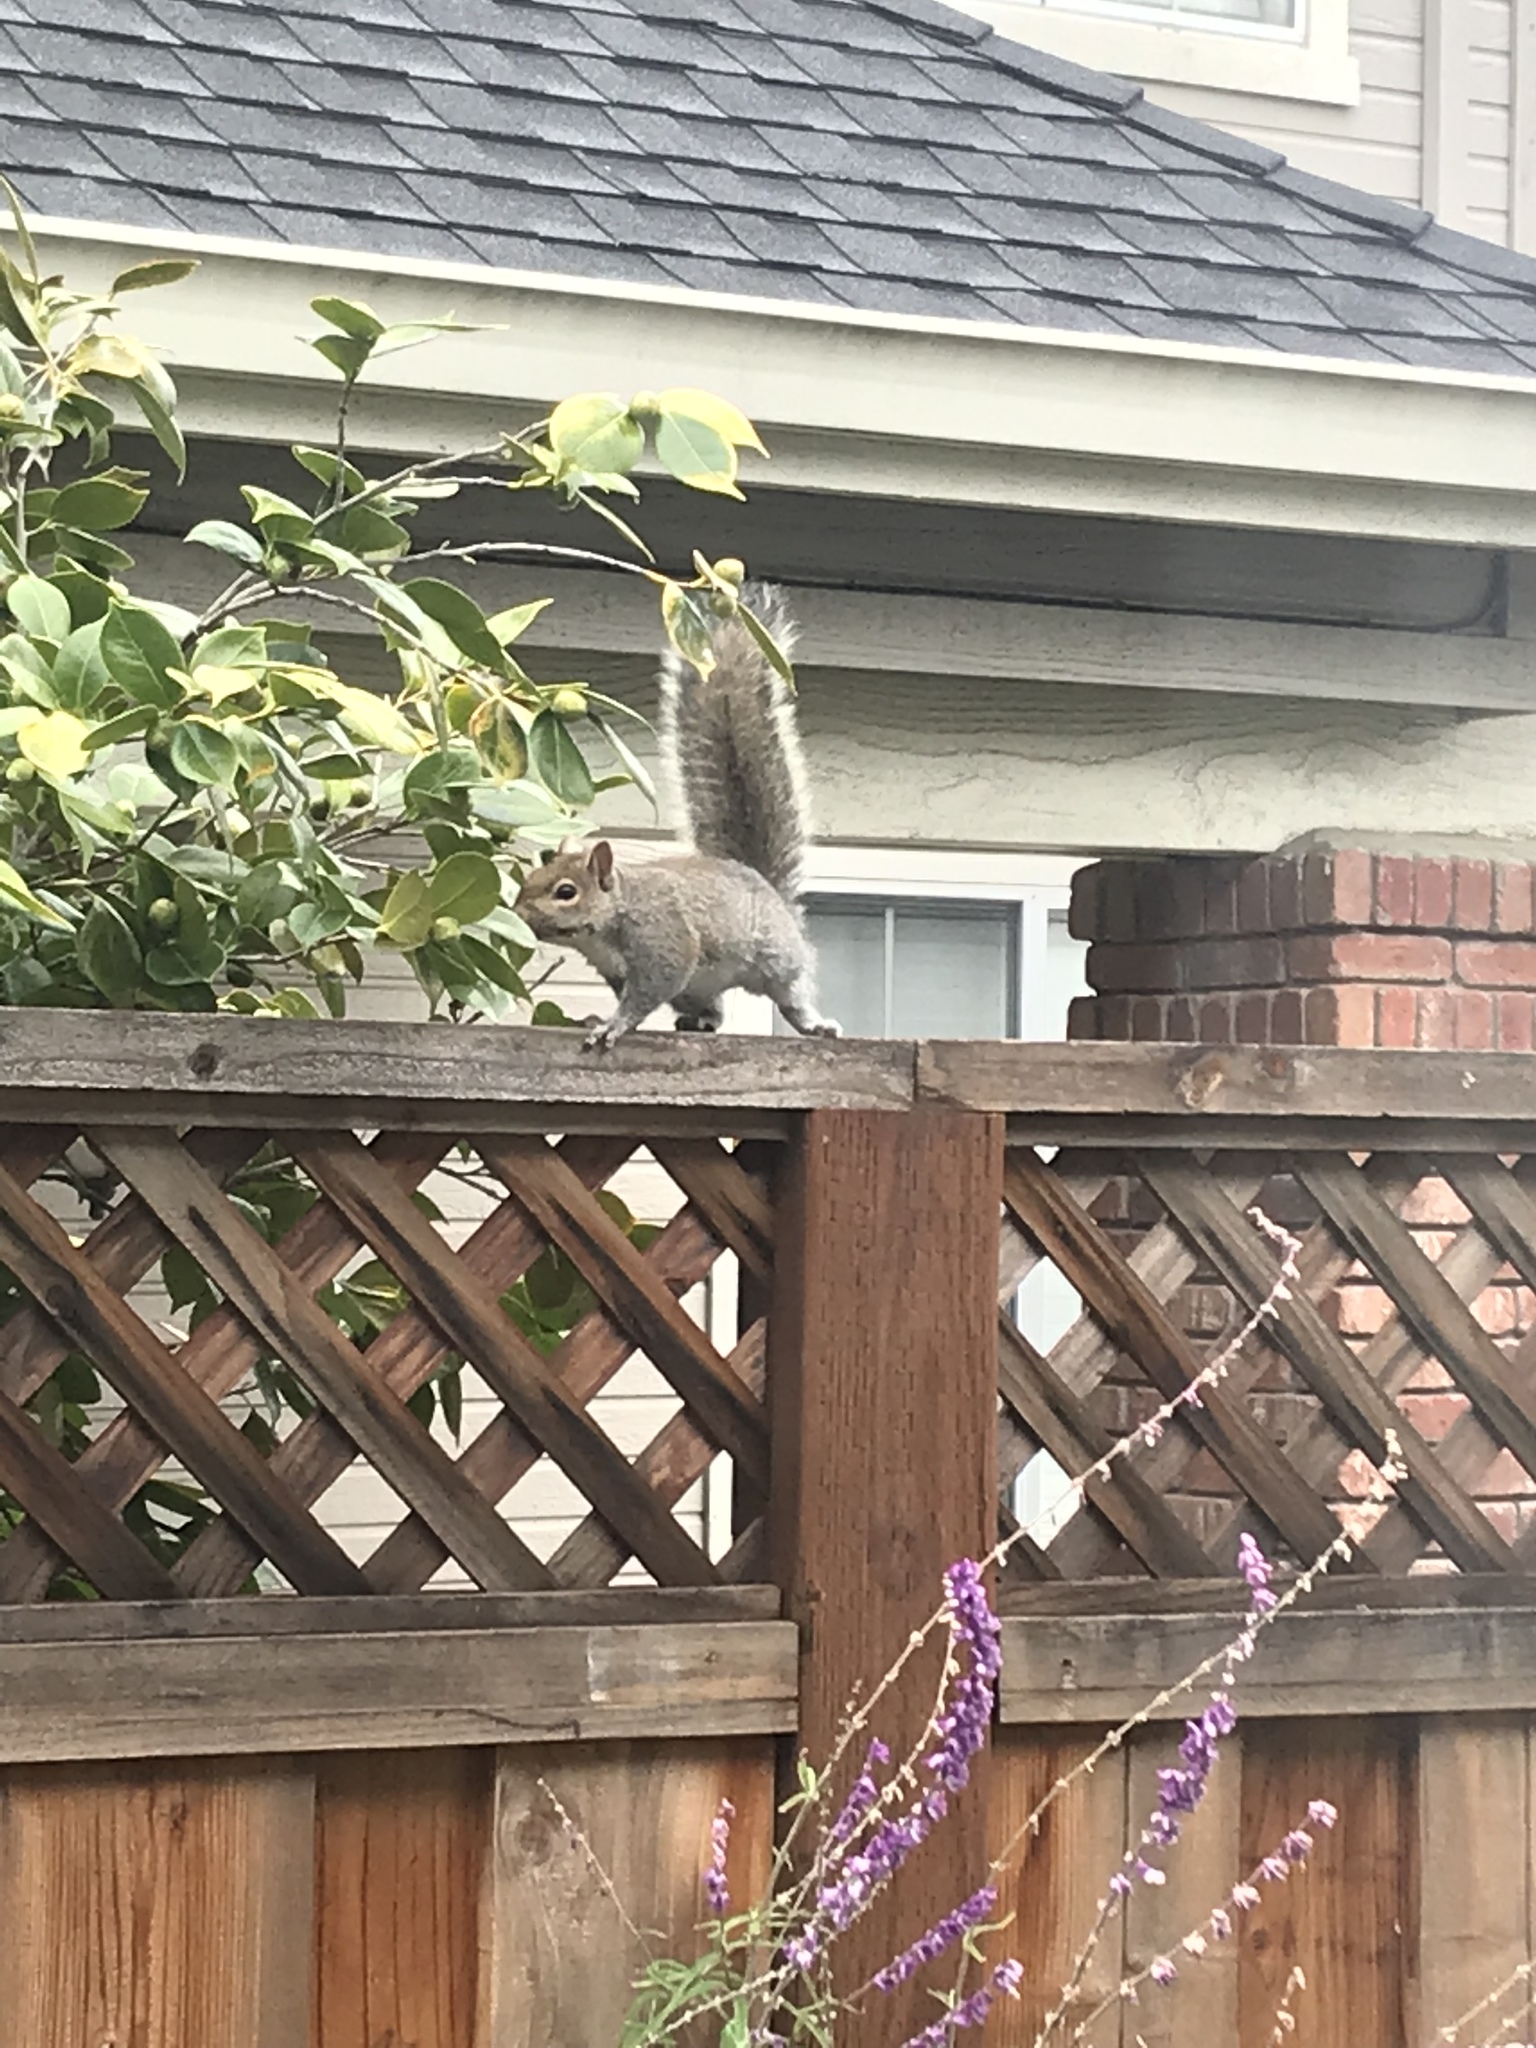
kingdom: Animalia
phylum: Chordata
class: Mammalia
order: Rodentia
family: Sciuridae
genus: Sciurus
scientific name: Sciurus carolinensis
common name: Eastern gray squirrel
